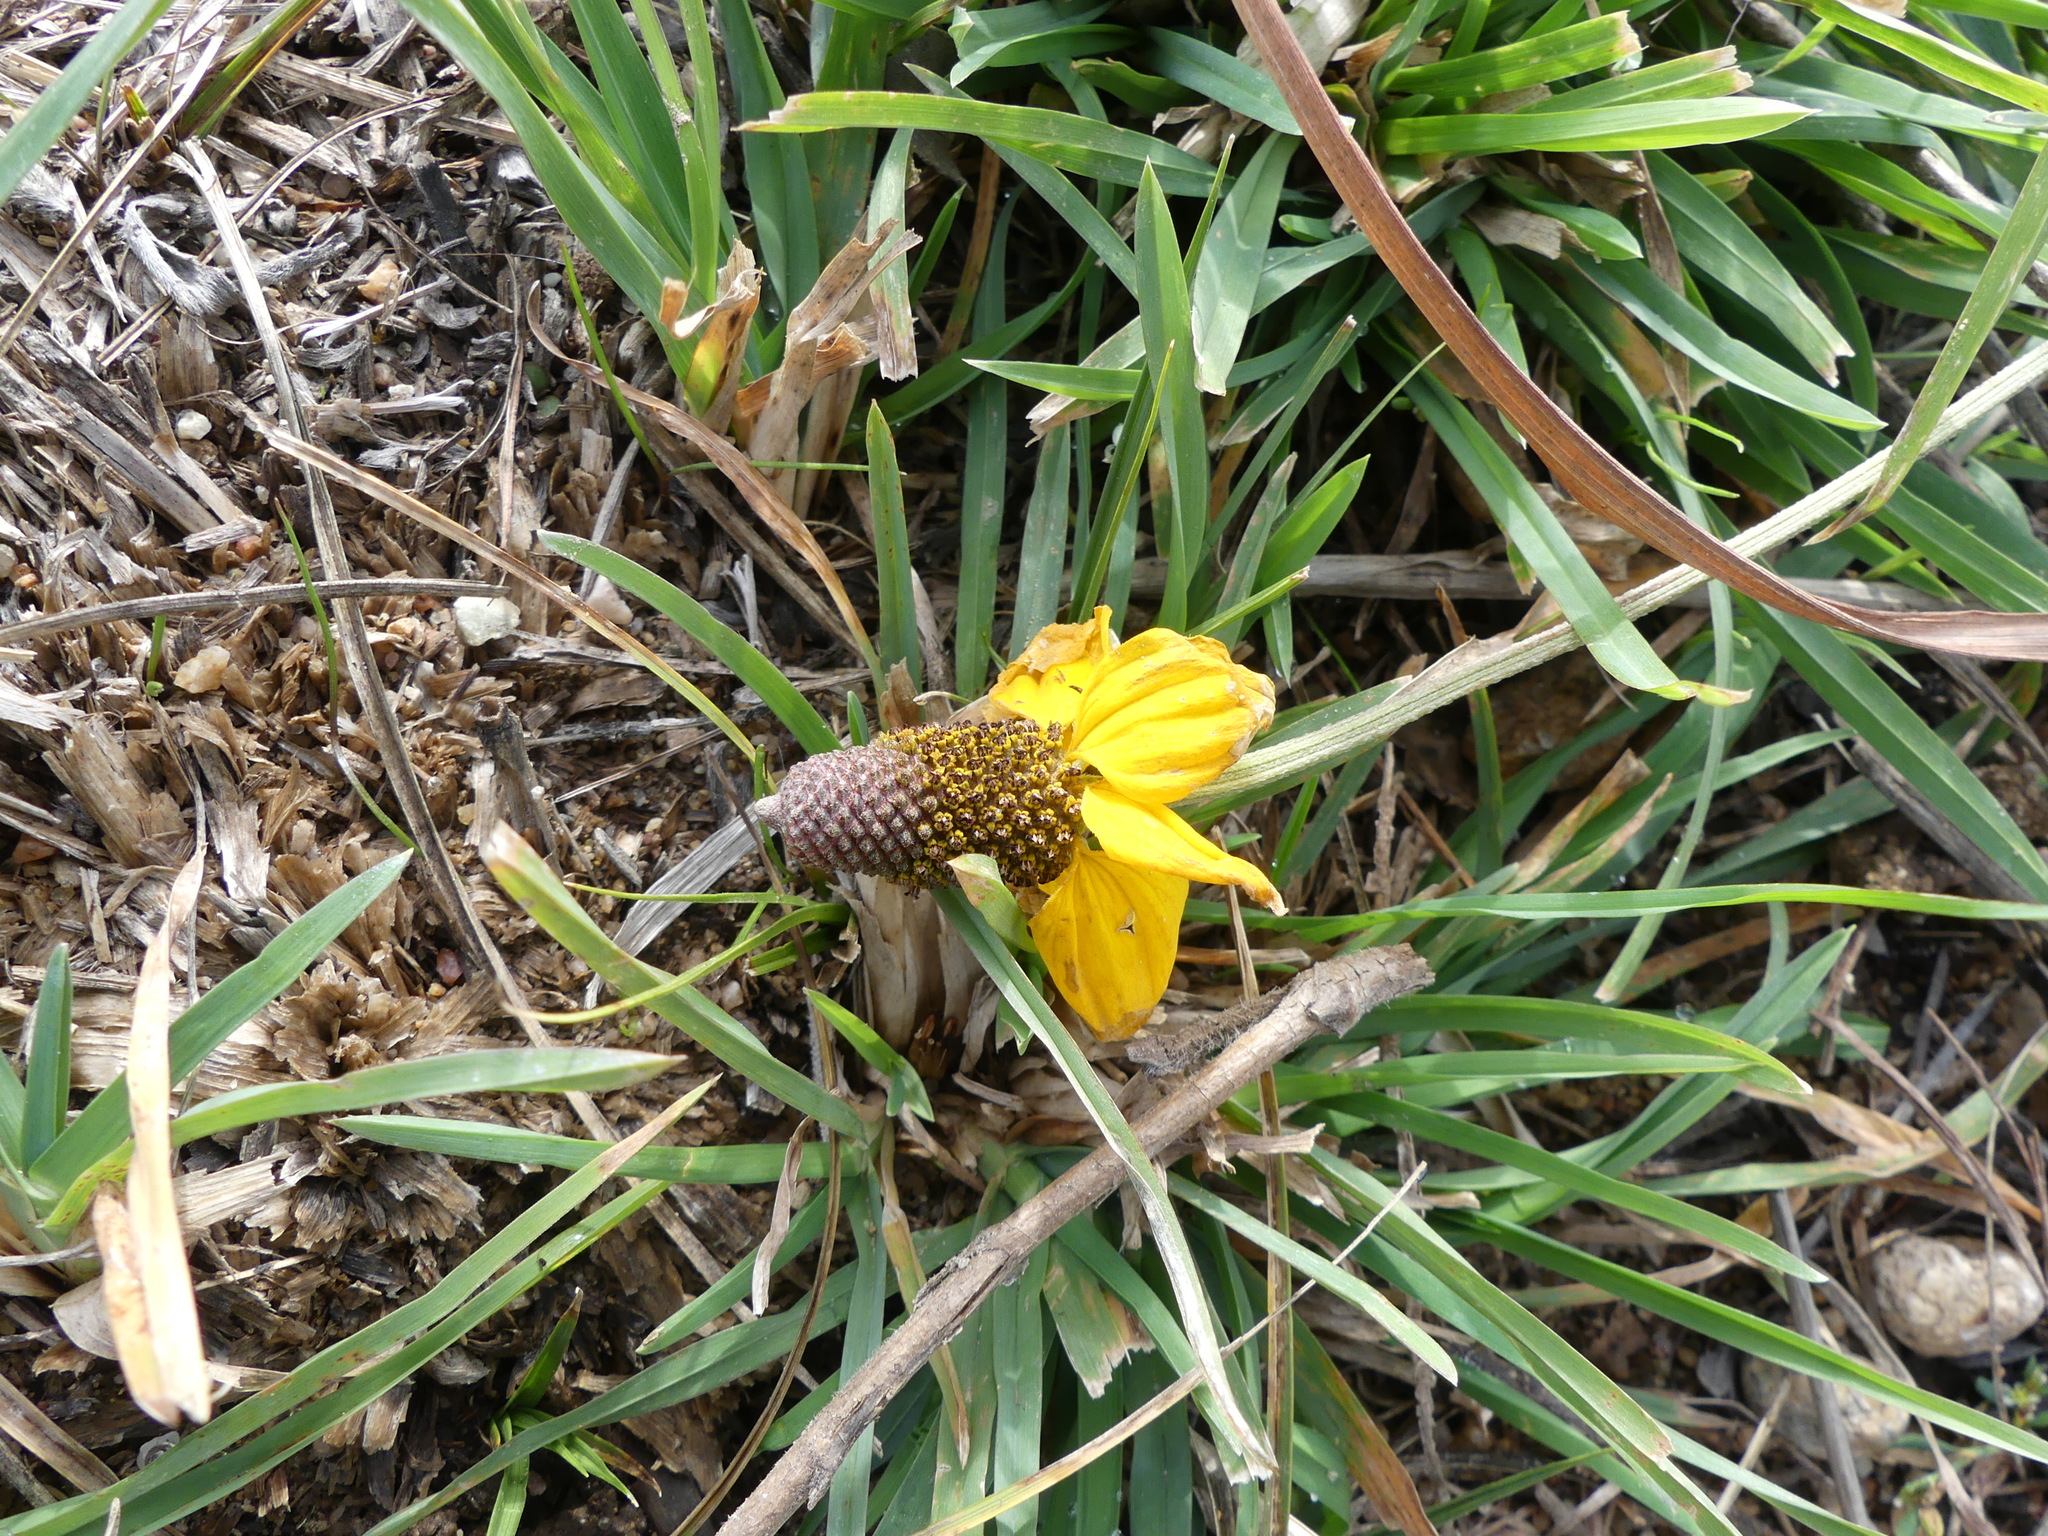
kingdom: Plantae
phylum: Tracheophyta
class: Magnoliopsida
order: Asterales
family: Asteraceae
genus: Ratibida
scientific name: Ratibida columnifera
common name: Prairie coneflower
